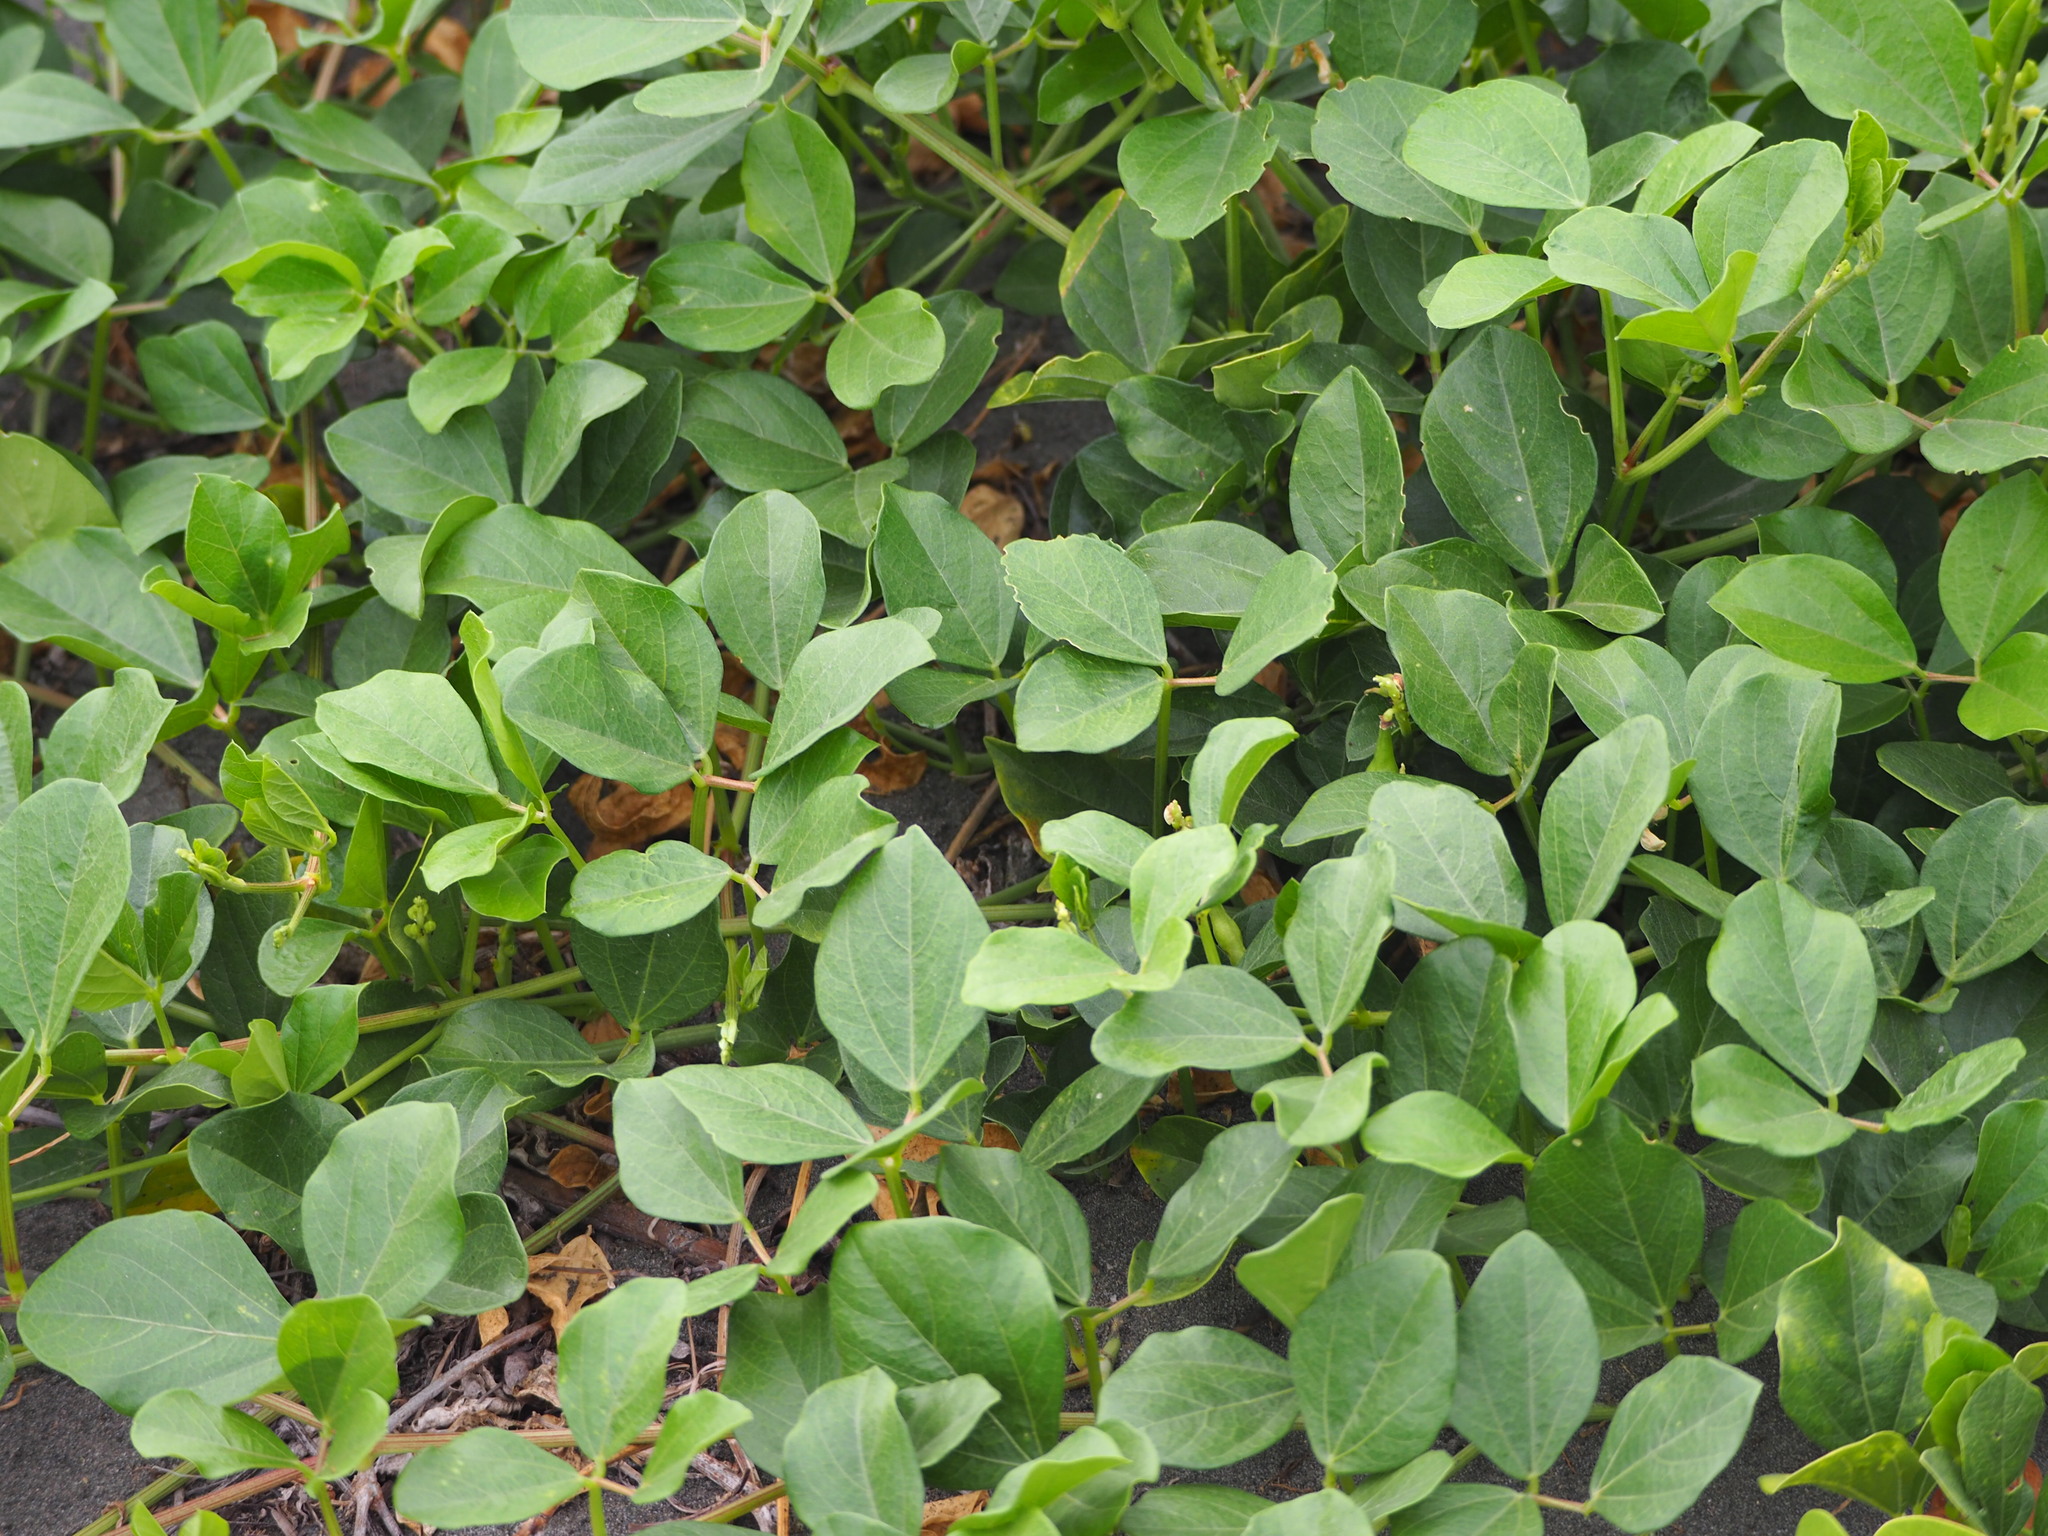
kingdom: Plantae
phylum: Tracheophyta
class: Magnoliopsida
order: Fabales
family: Fabaceae
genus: Vigna
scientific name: Vigna marina
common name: Dune-bean
